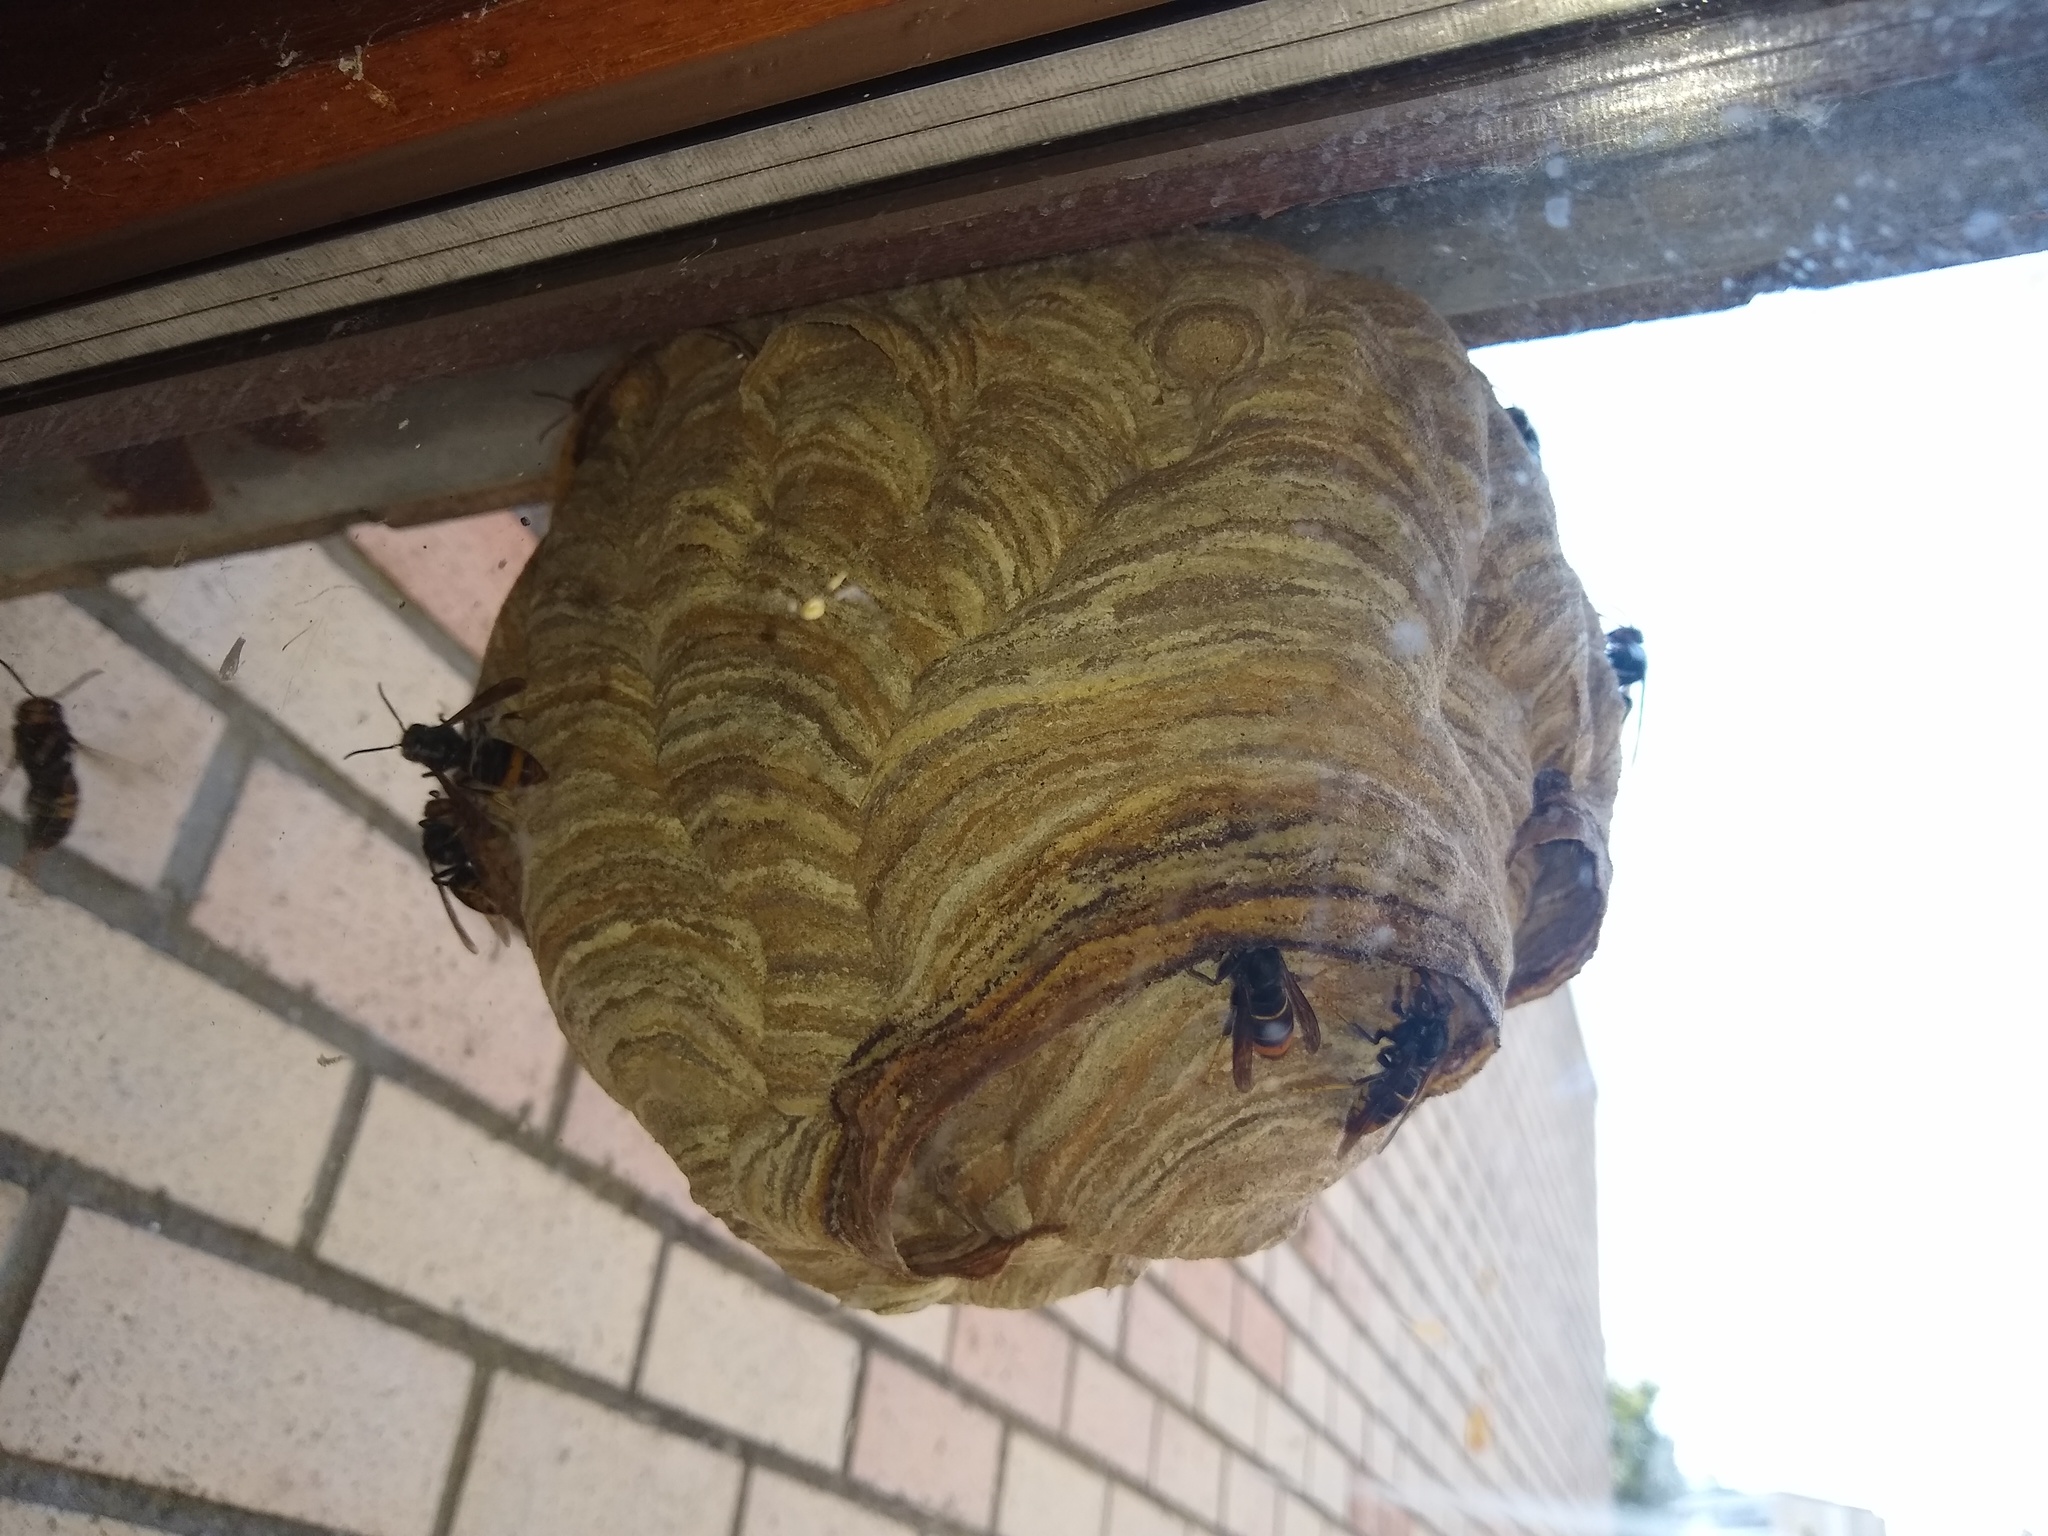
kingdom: Animalia
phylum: Arthropoda
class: Insecta
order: Hymenoptera
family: Vespidae
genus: Vespa
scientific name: Vespa velutina
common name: Asian hornet
